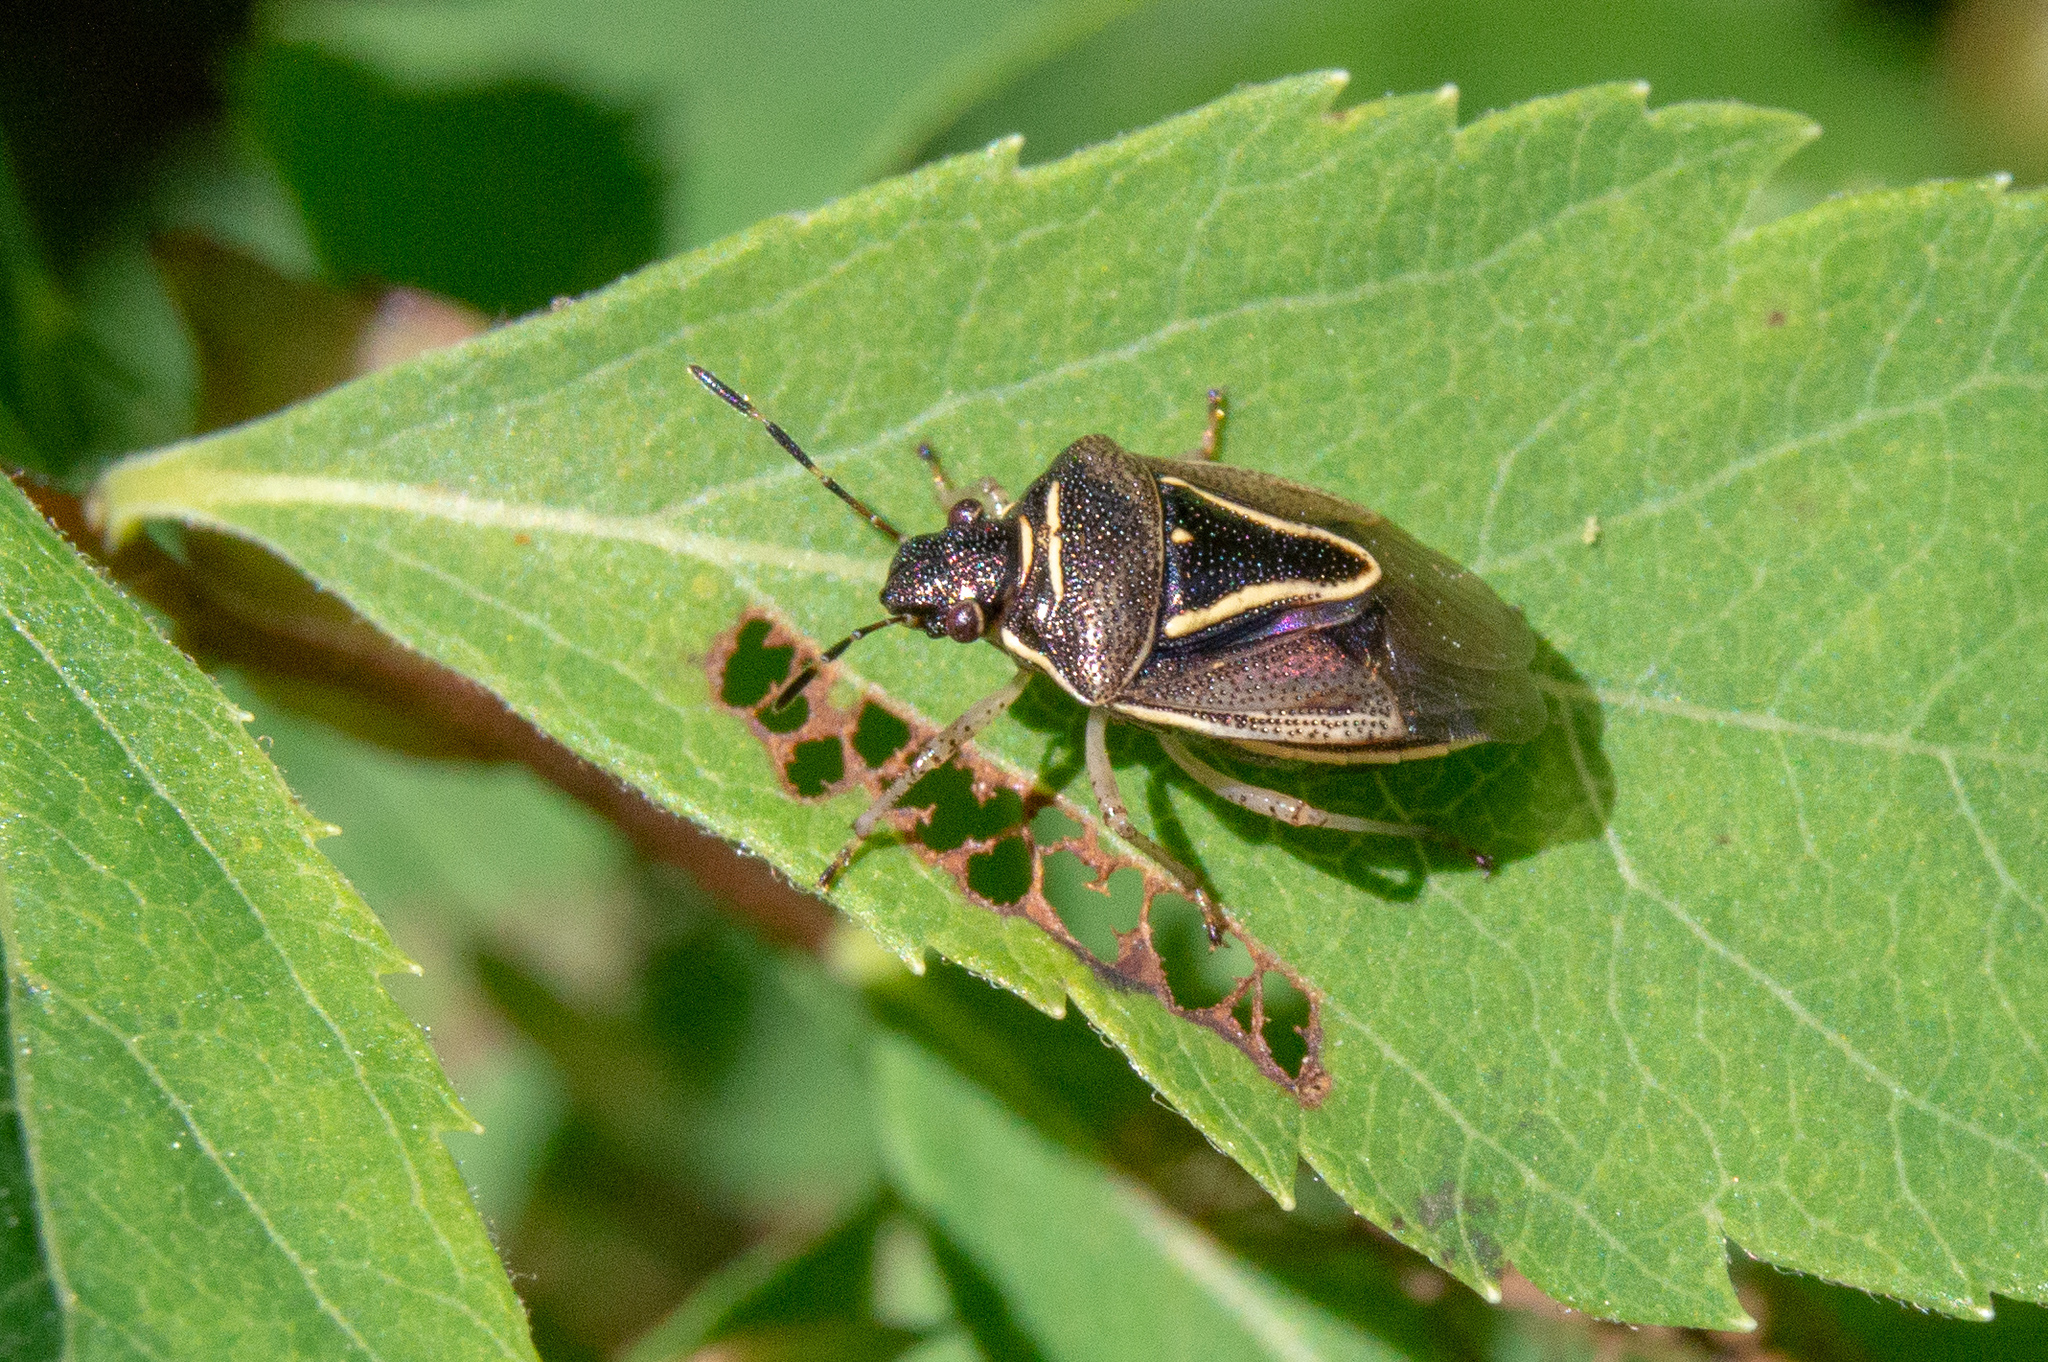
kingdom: Animalia
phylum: Arthropoda
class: Insecta
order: Hemiptera
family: Pentatomidae
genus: Mormidea
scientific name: Mormidea lugens
